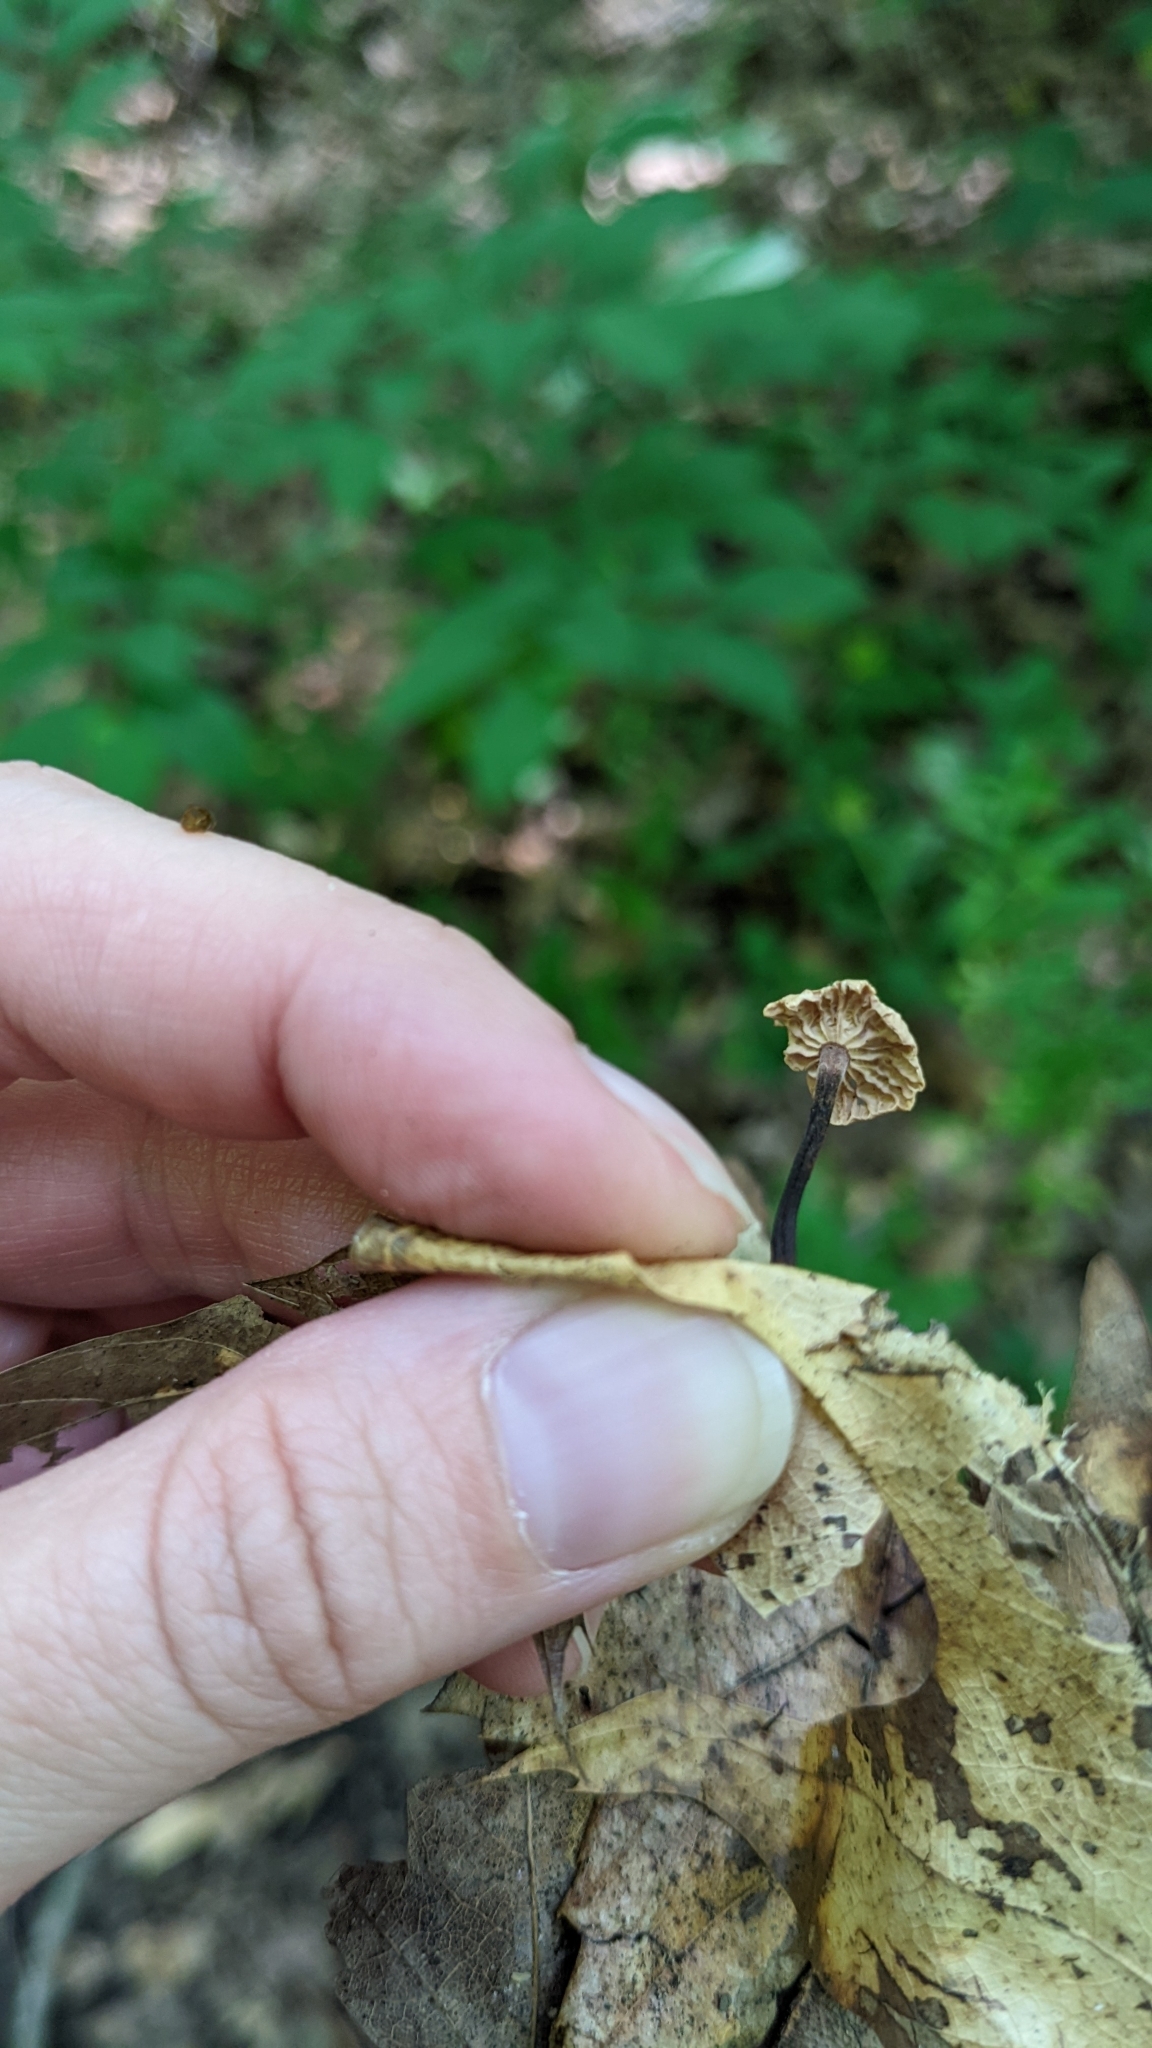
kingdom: Fungi
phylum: Basidiomycota
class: Agaricomycetes
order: Agaricales
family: Omphalotaceae
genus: Paragymnopus
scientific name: Paragymnopus foliiphilus
